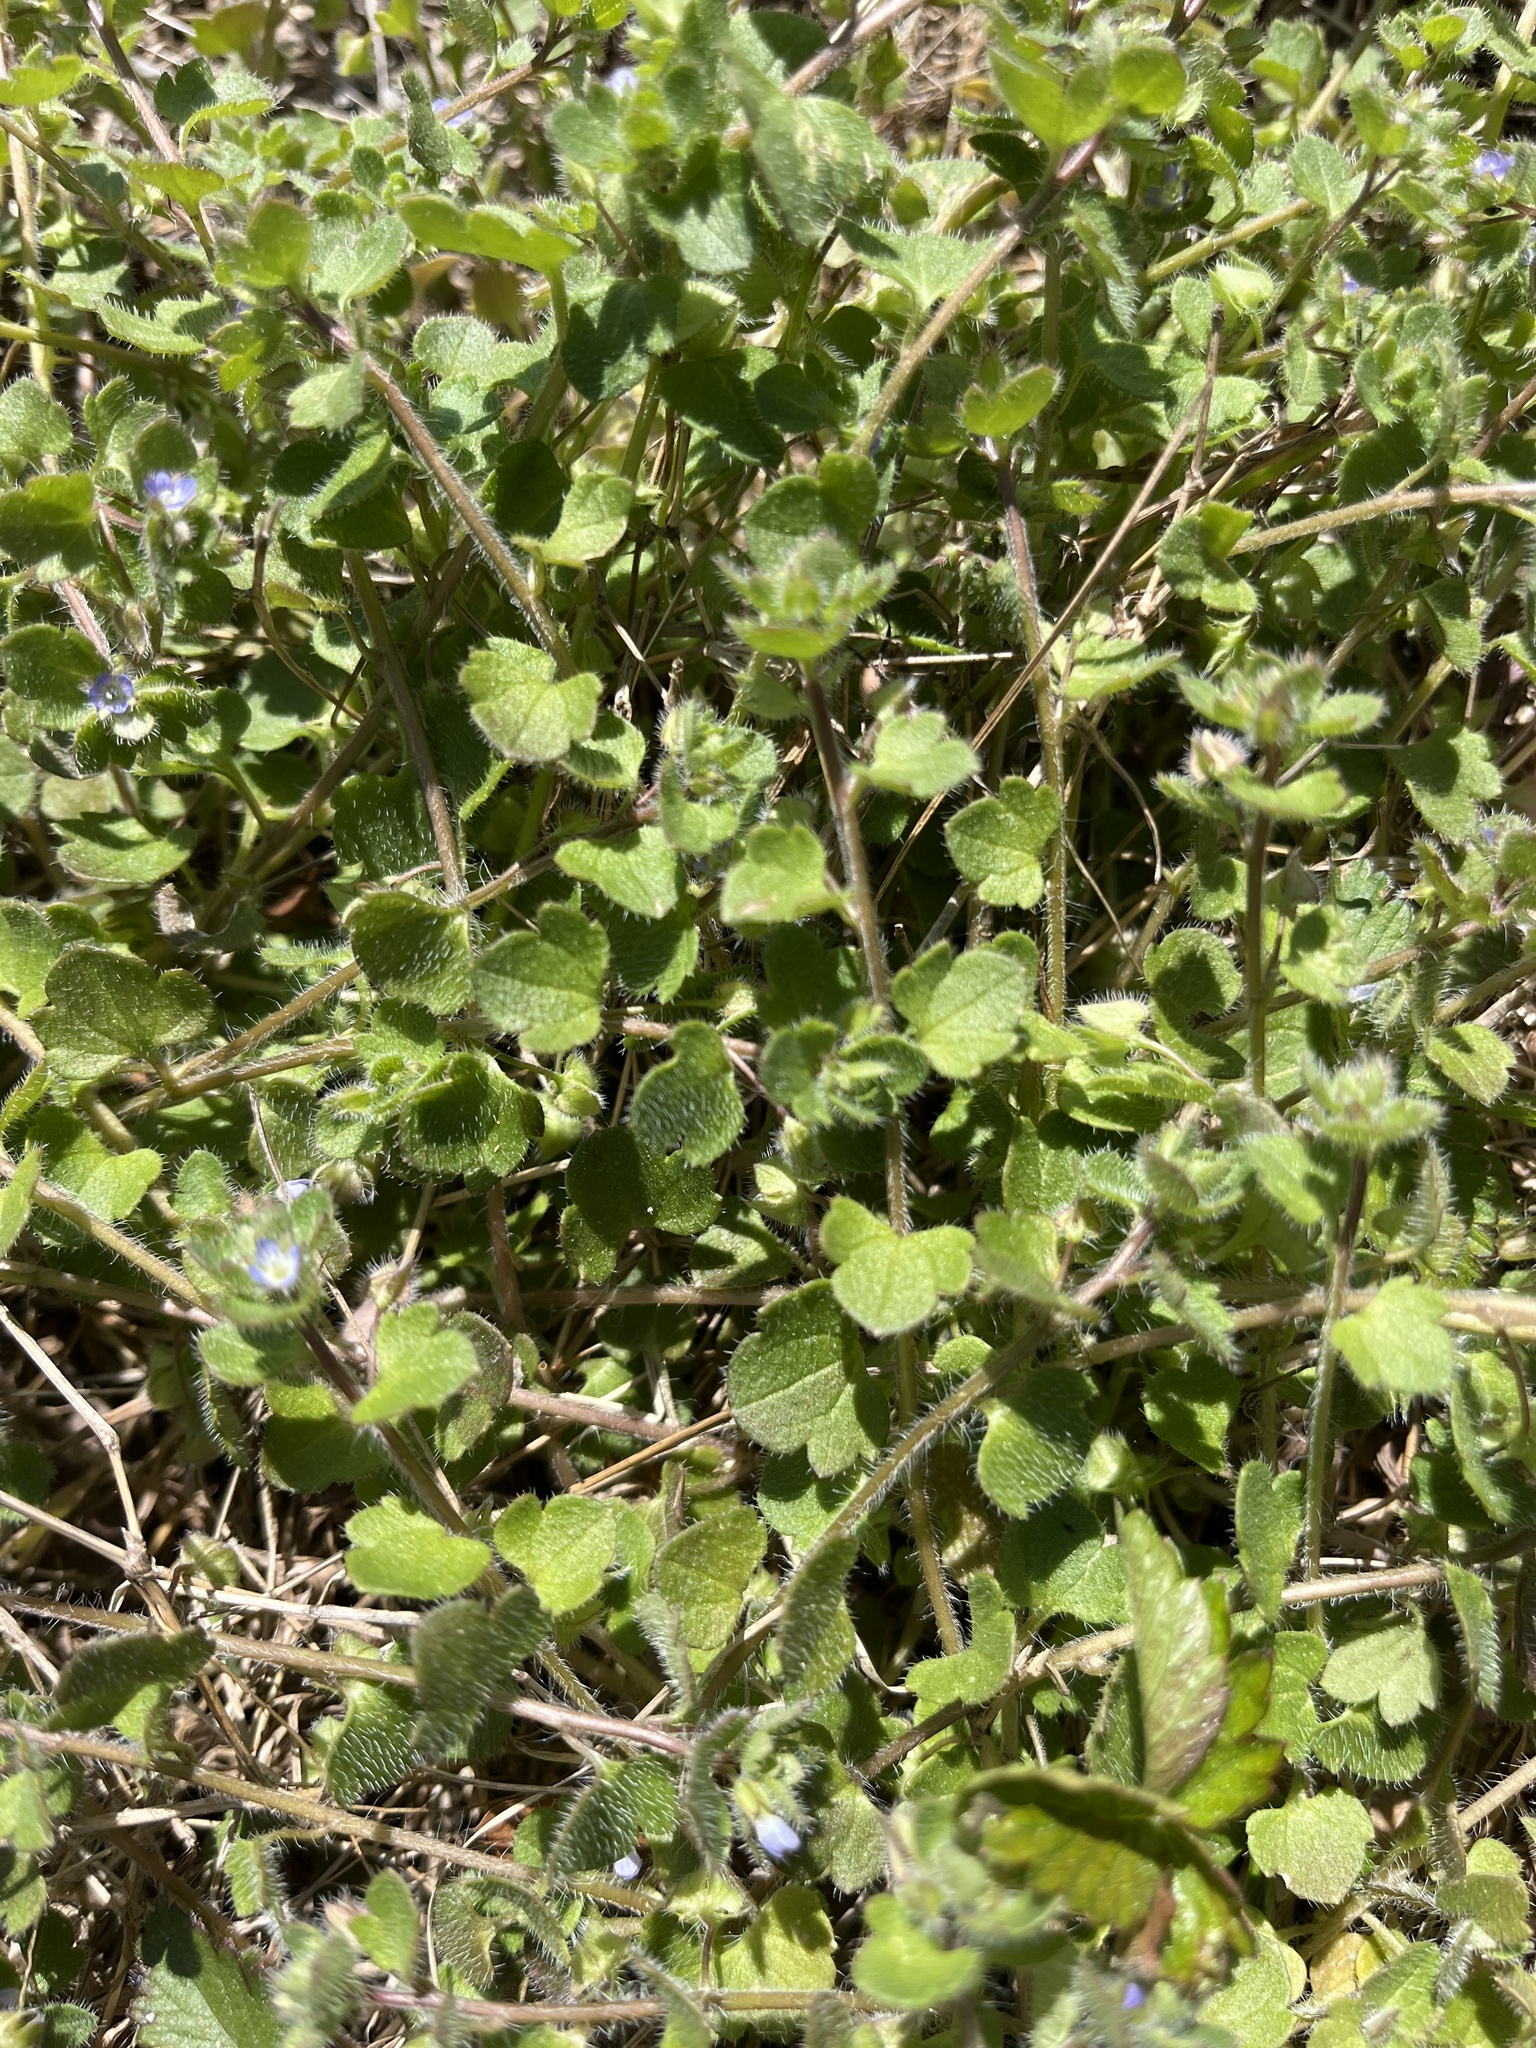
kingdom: Plantae
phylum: Tracheophyta
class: Magnoliopsida
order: Lamiales
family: Plantaginaceae
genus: Veronica
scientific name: Veronica hederifolia
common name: Ivy-leaved speedwell
